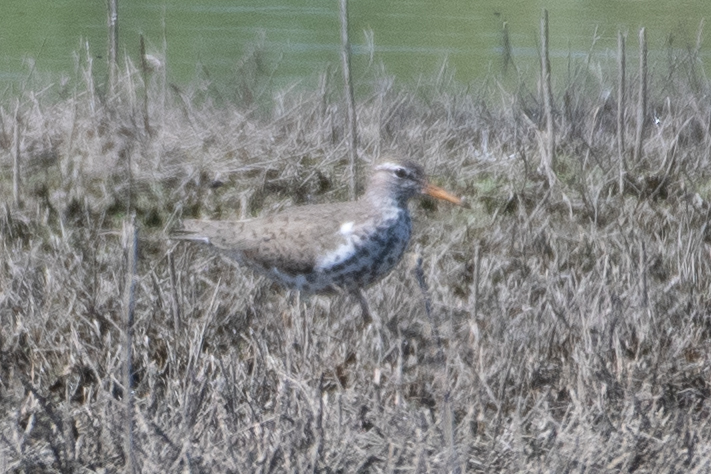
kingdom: Animalia
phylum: Chordata
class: Aves
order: Charadriiformes
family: Scolopacidae
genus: Actitis
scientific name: Actitis macularius
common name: Spotted sandpiper
